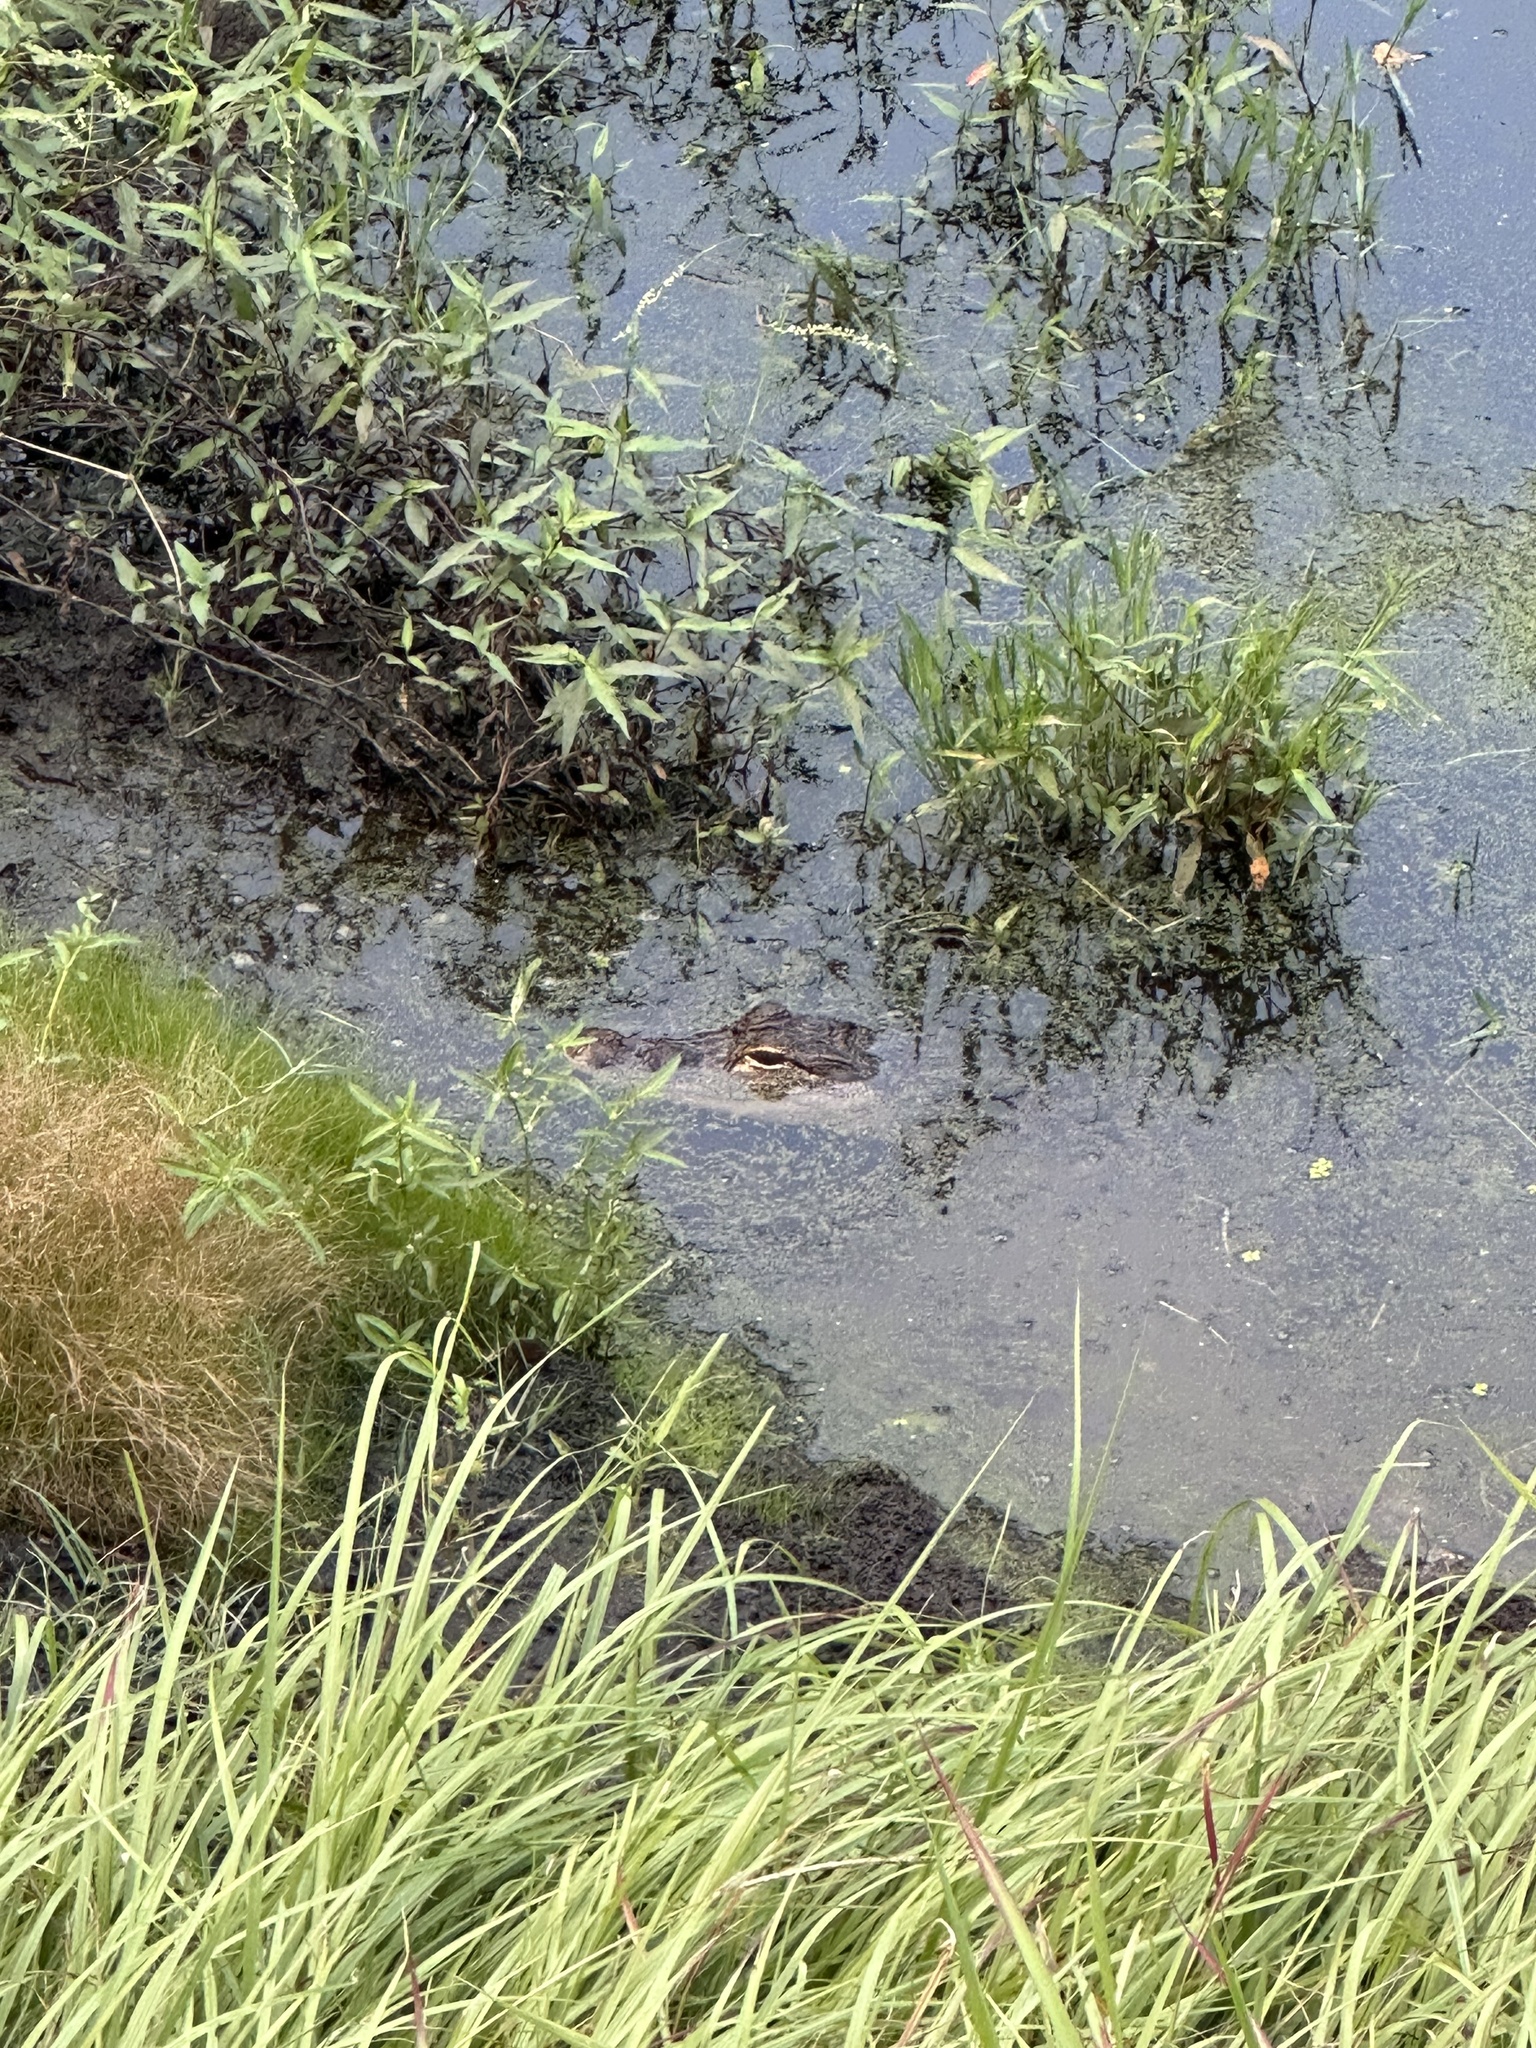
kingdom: Animalia
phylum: Chordata
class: Crocodylia
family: Alligatoridae
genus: Alligator
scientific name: Alligator mississippiensis
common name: American alligator
